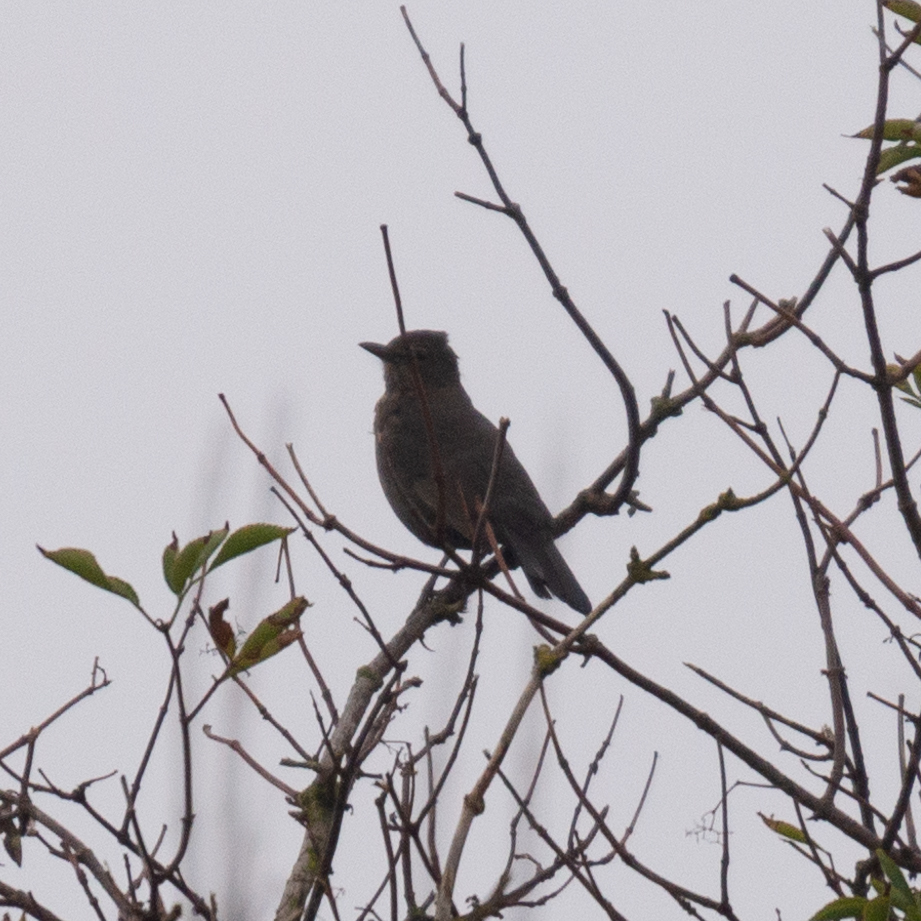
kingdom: Animalia
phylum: Chordata
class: Aves
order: Passeriformes
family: Turdidae
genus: Turdus
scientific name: Turdus merula
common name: Common blackbird
